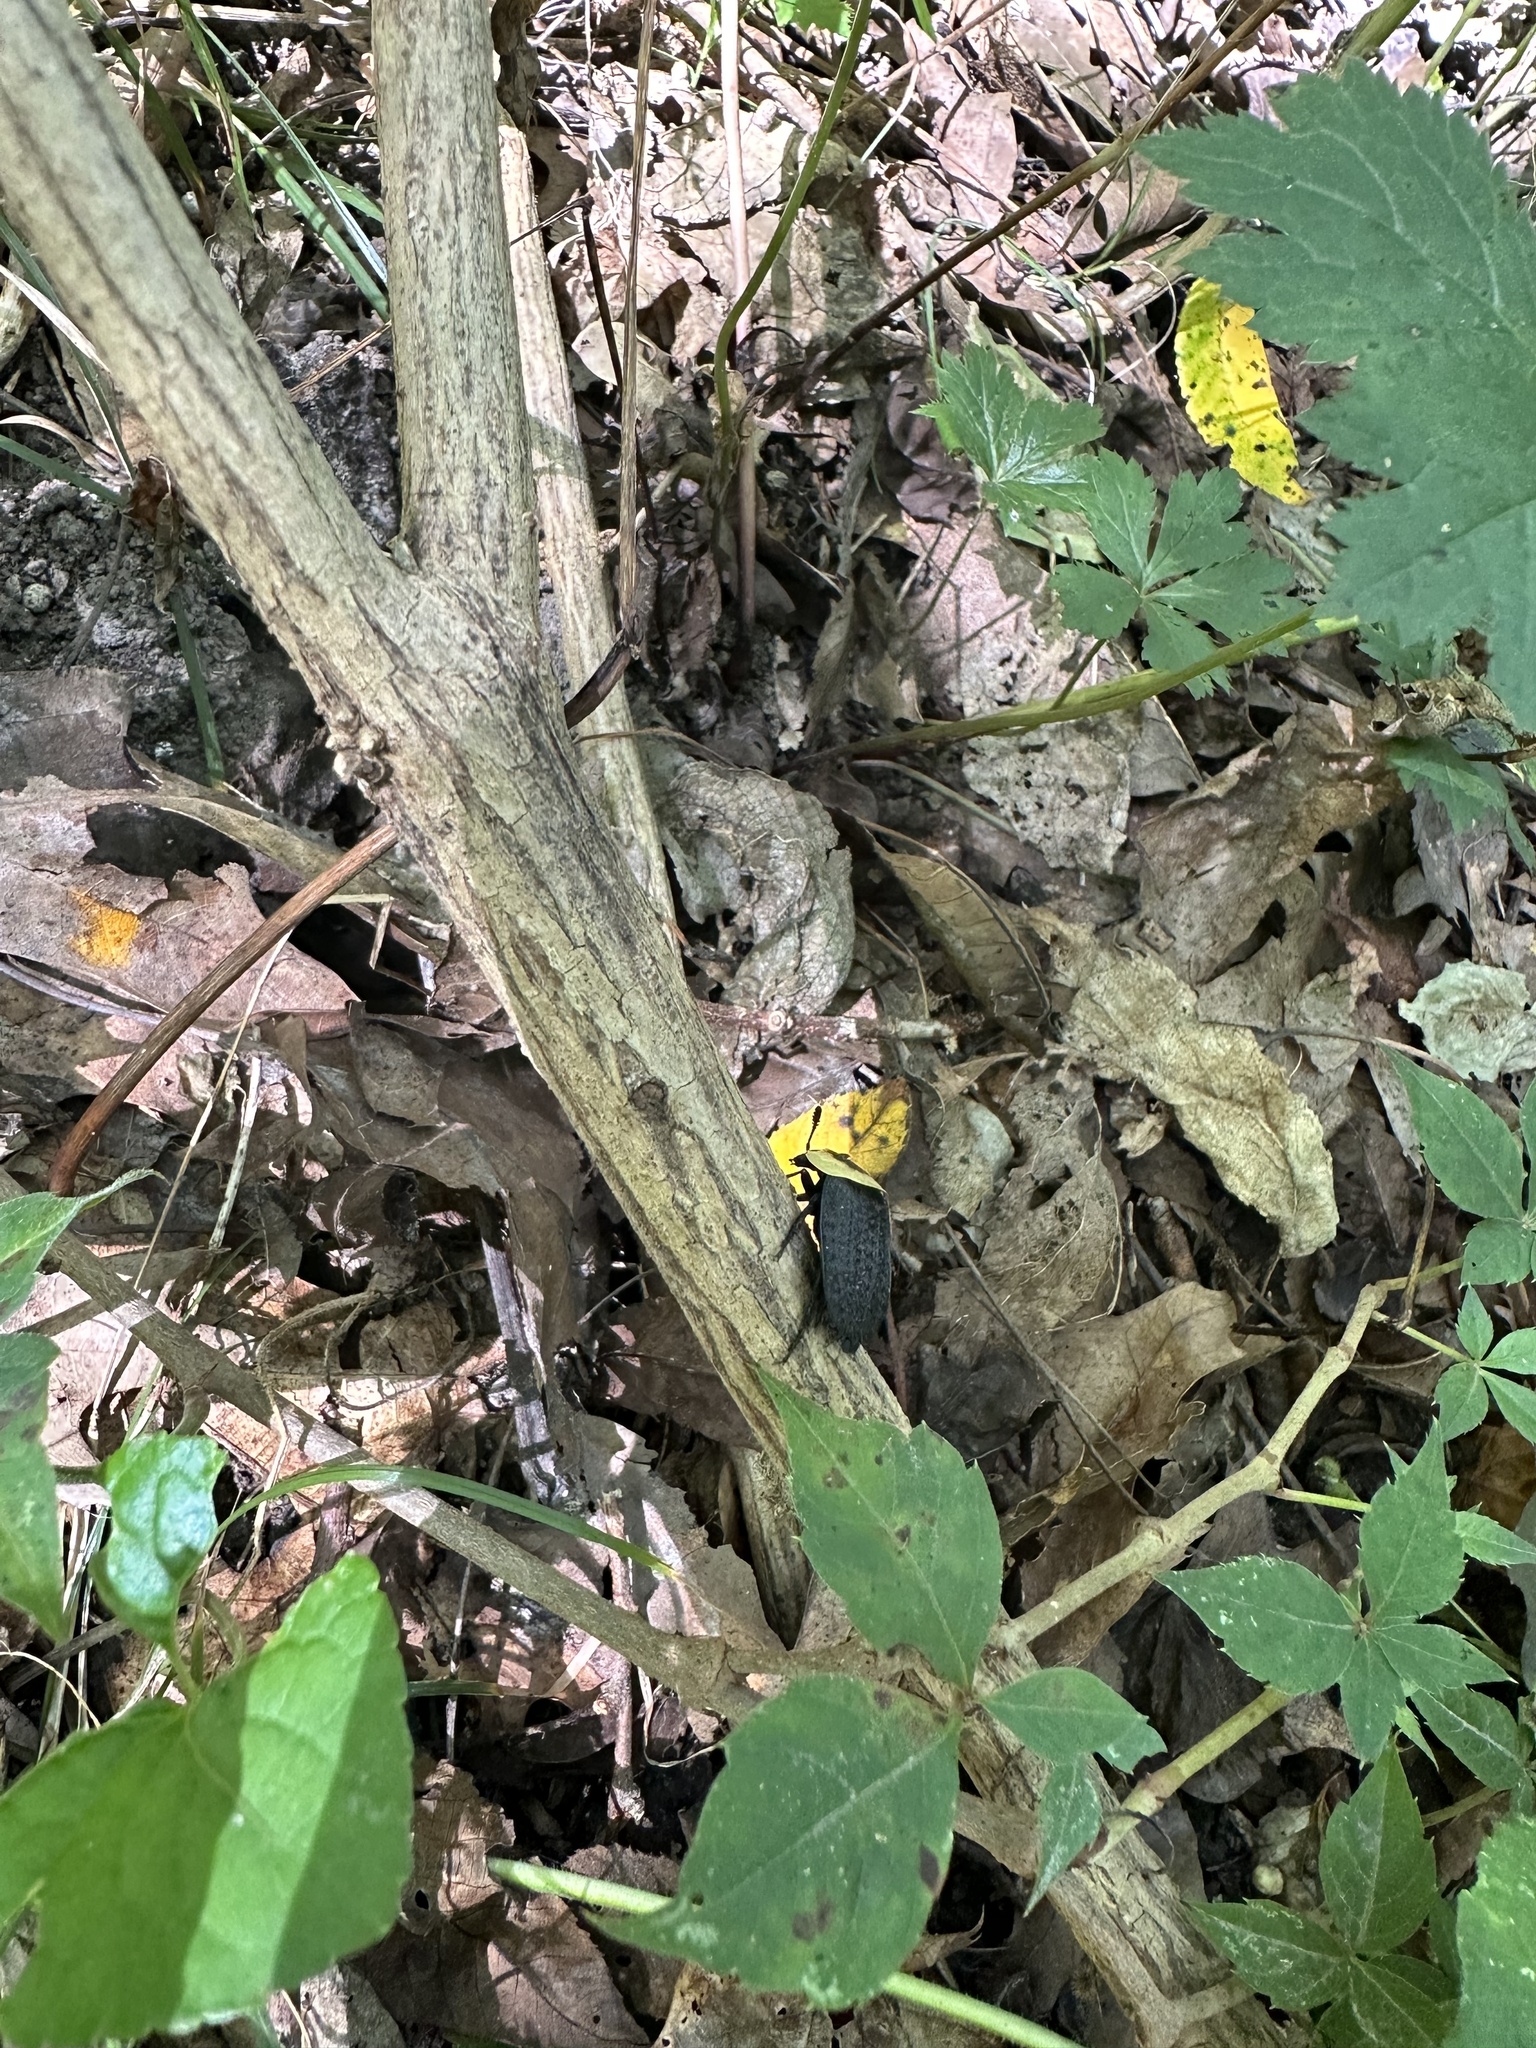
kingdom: Animalia
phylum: Arthropoda
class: Insecta
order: Coleoptera
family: Staphylinidae
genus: Necrophila
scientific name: Necrophila americana
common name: American carrion beetle
